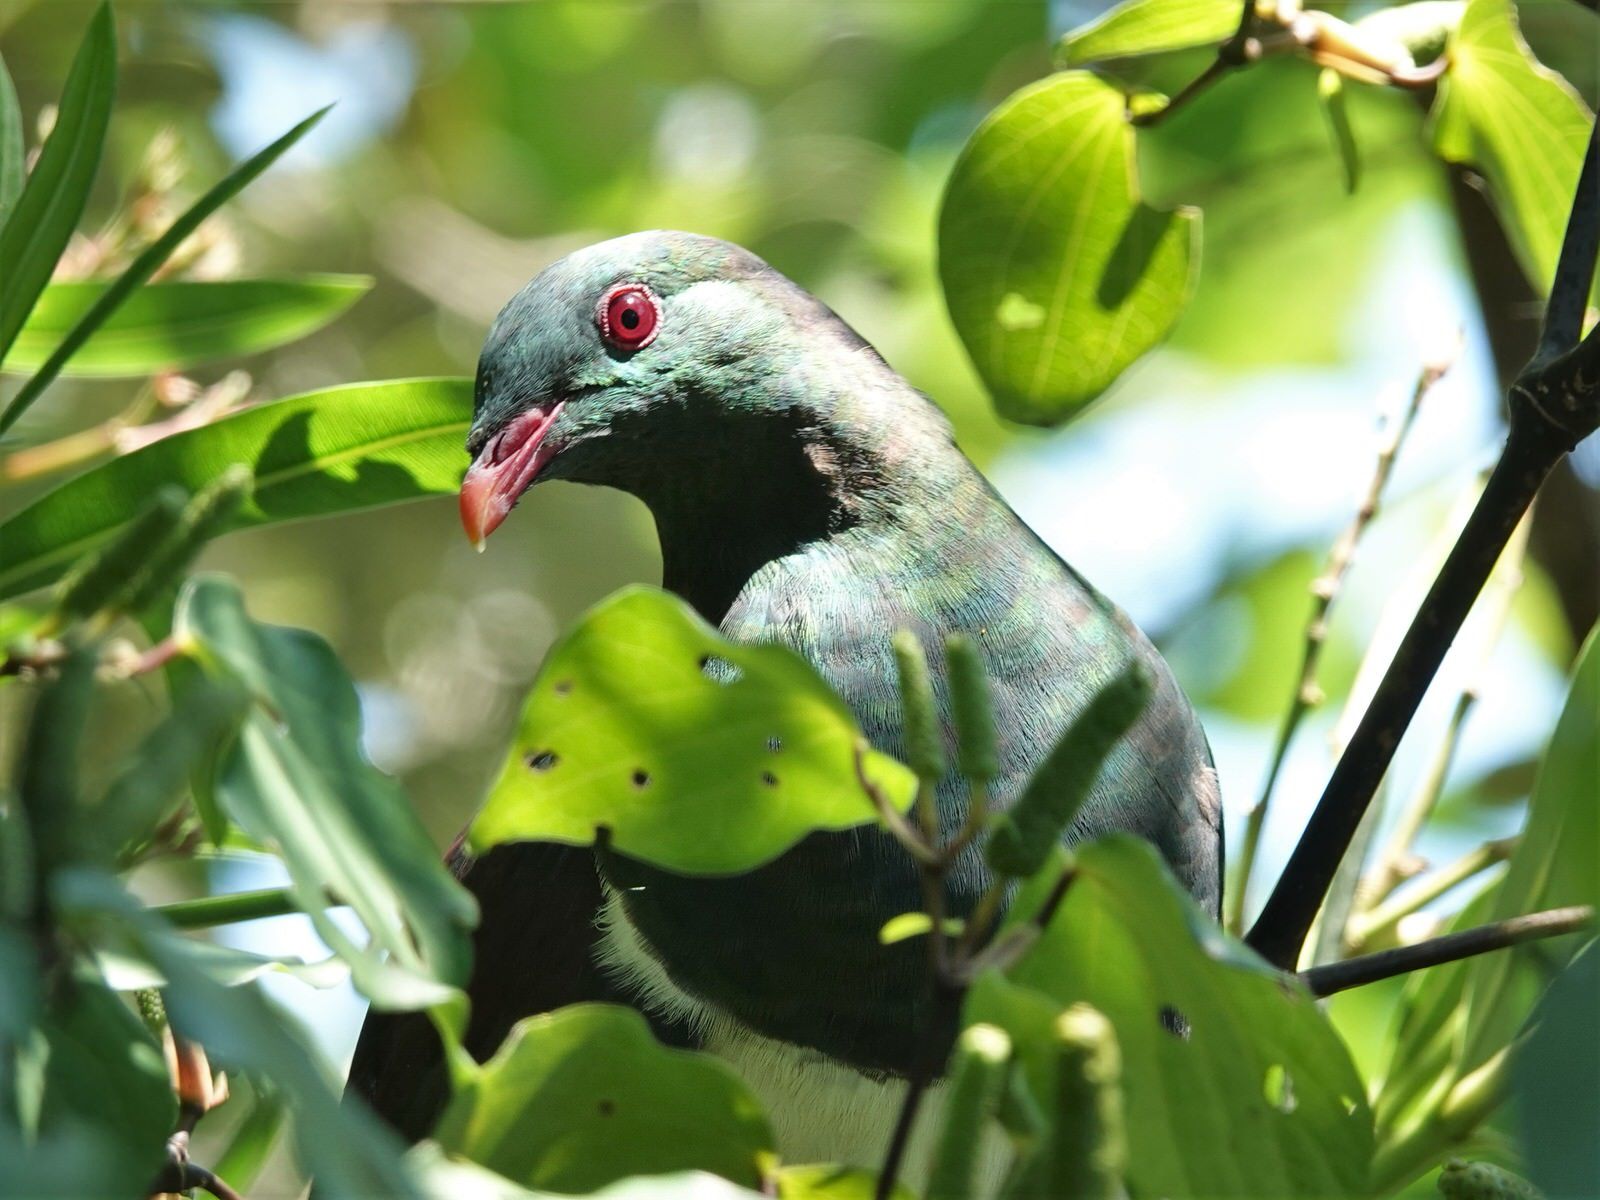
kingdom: Animalia
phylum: Chordata
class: Aves
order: Columbiformes
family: Columbidae
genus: Hemiphaga
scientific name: Hemiphaga novaeseelandiae
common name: New zealand pigeon
